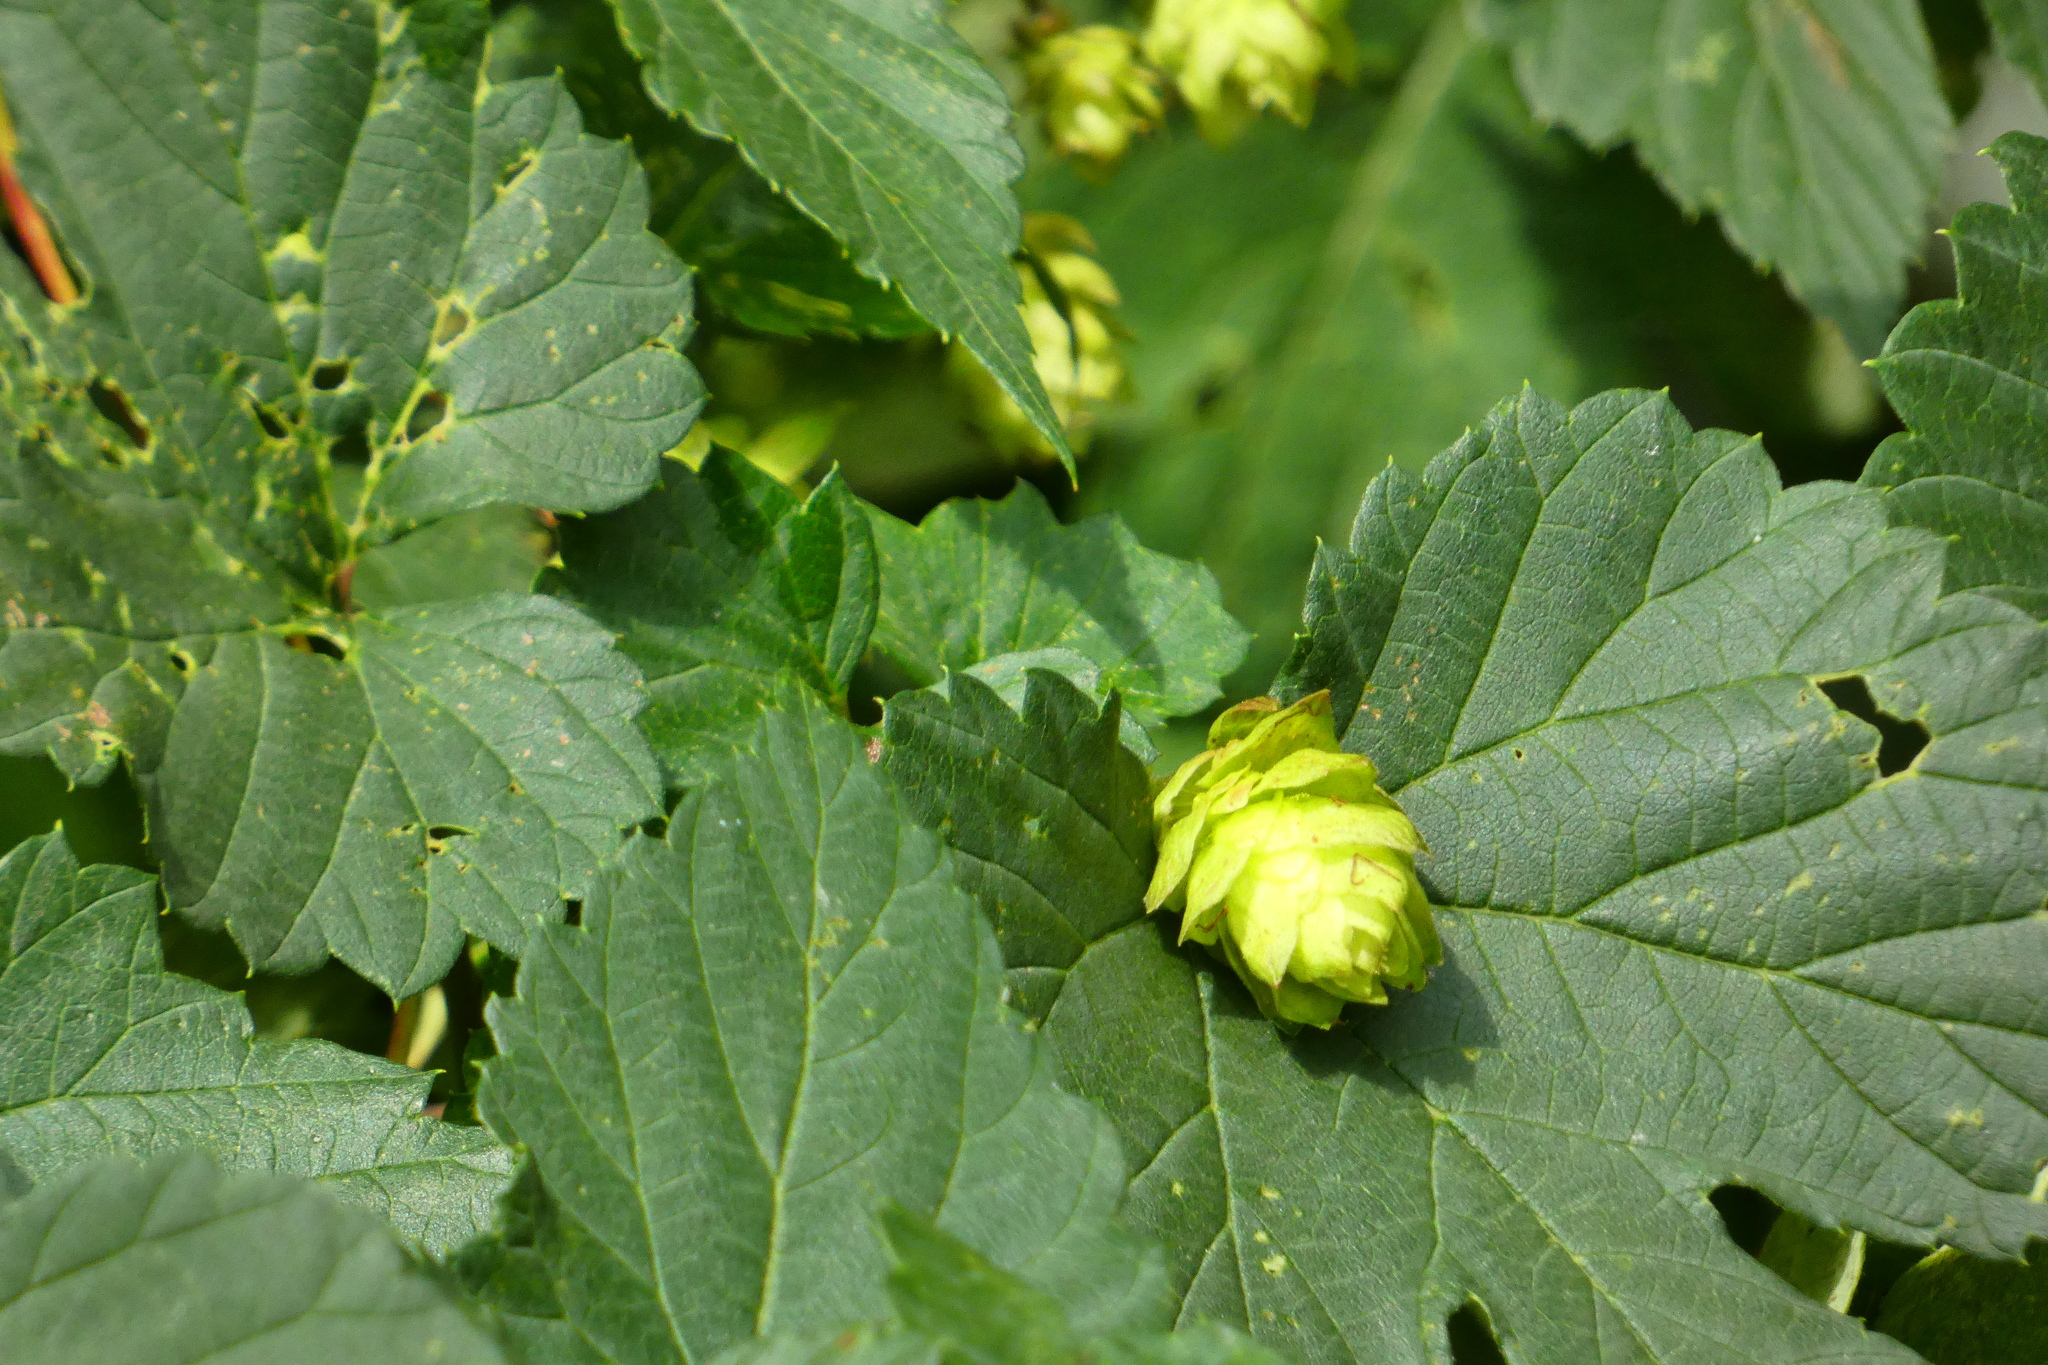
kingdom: Plantae
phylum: Tracheophyta
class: Magnoliopsida
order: Rosales
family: Cannabaceae
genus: Humulus
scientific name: Humulus lupulus
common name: Hop
